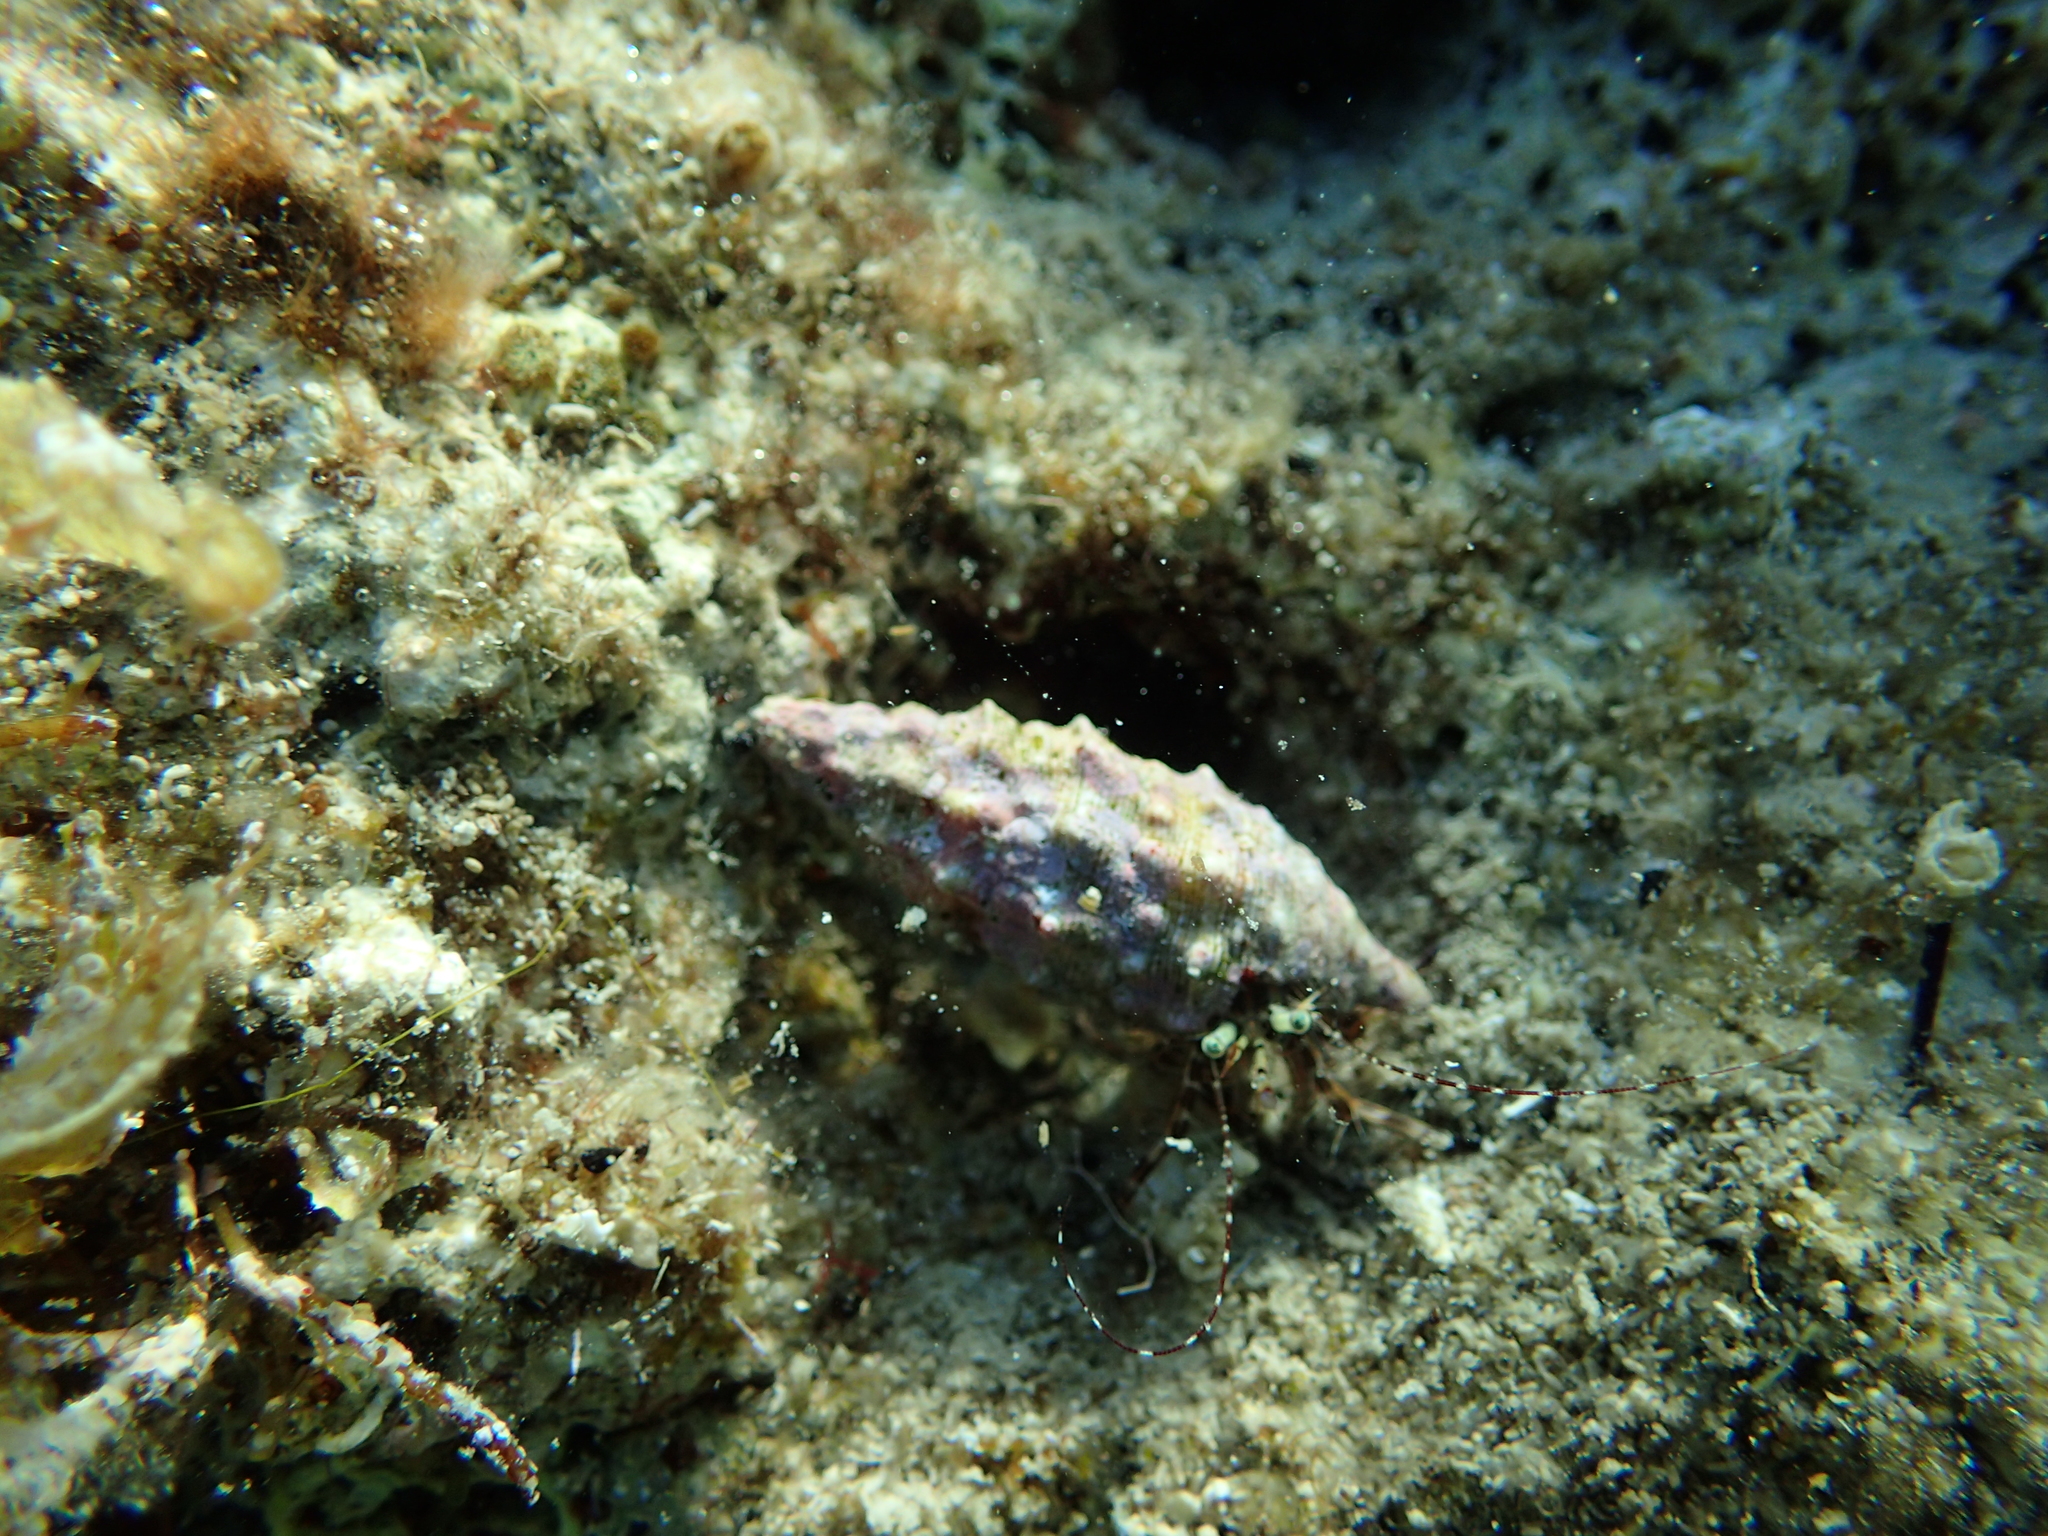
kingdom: Animalia
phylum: Mollusca
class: Gastropoda
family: Cerithiidae
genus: Cerithium
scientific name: Cerithium vulgatum
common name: European cerith
